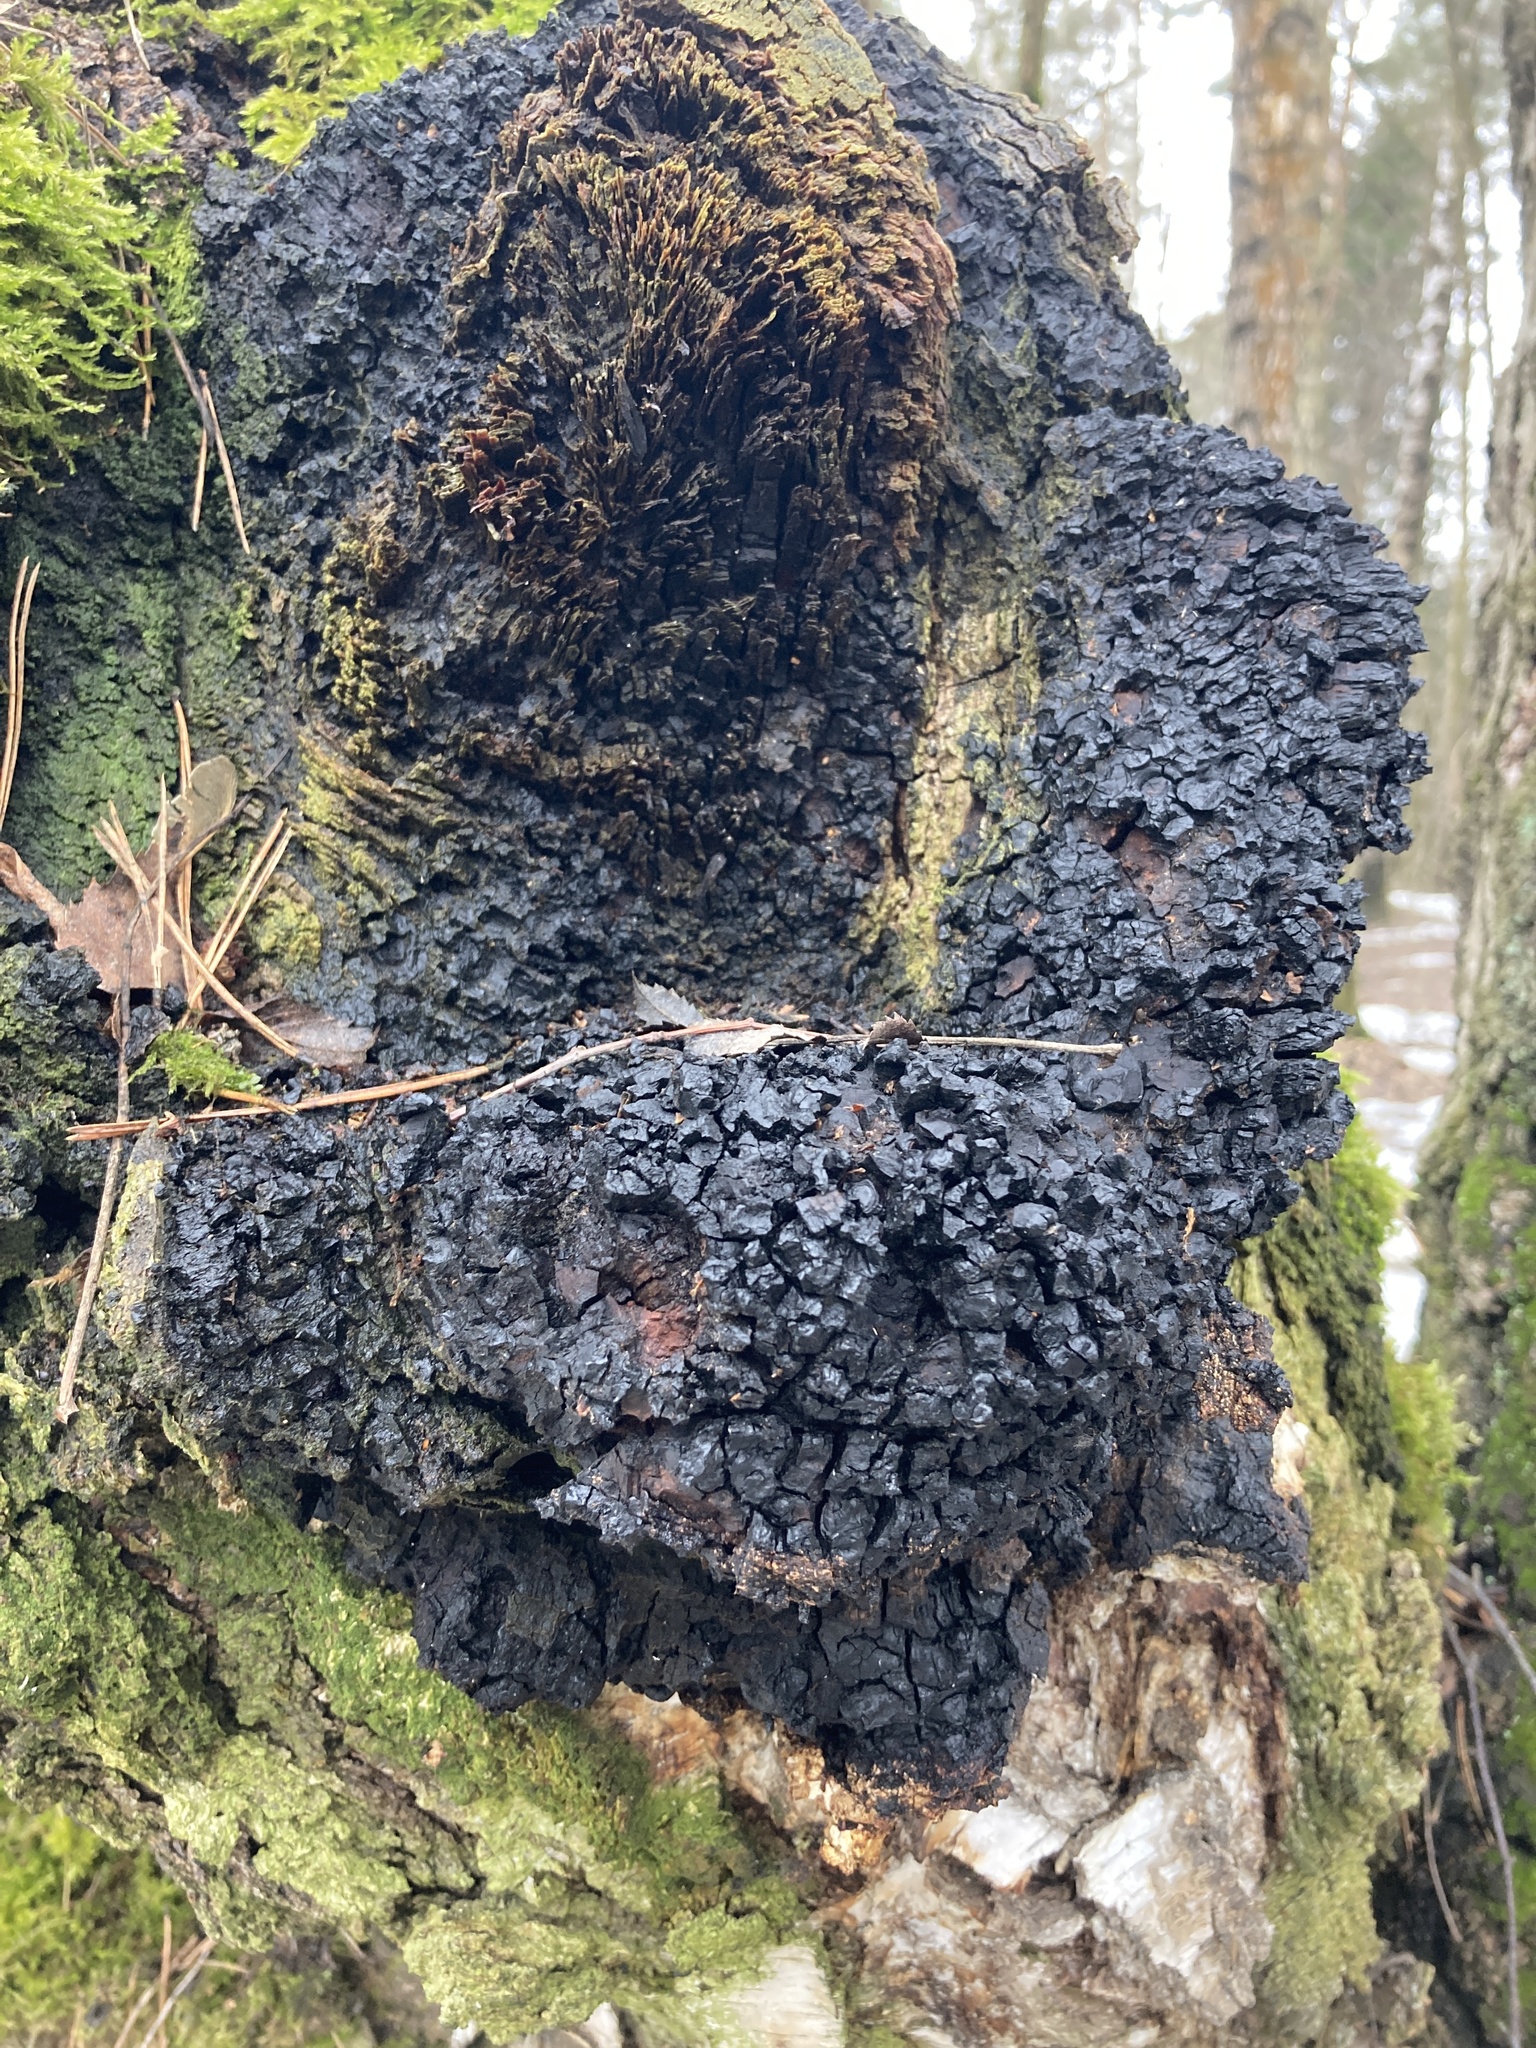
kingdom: Fungi
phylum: Basidiomycota
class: Agaricomycetes
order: Hymenochaetales
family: Hymenochaetaceae
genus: Inonotus
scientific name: Inonotus obliquus
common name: Chaga
